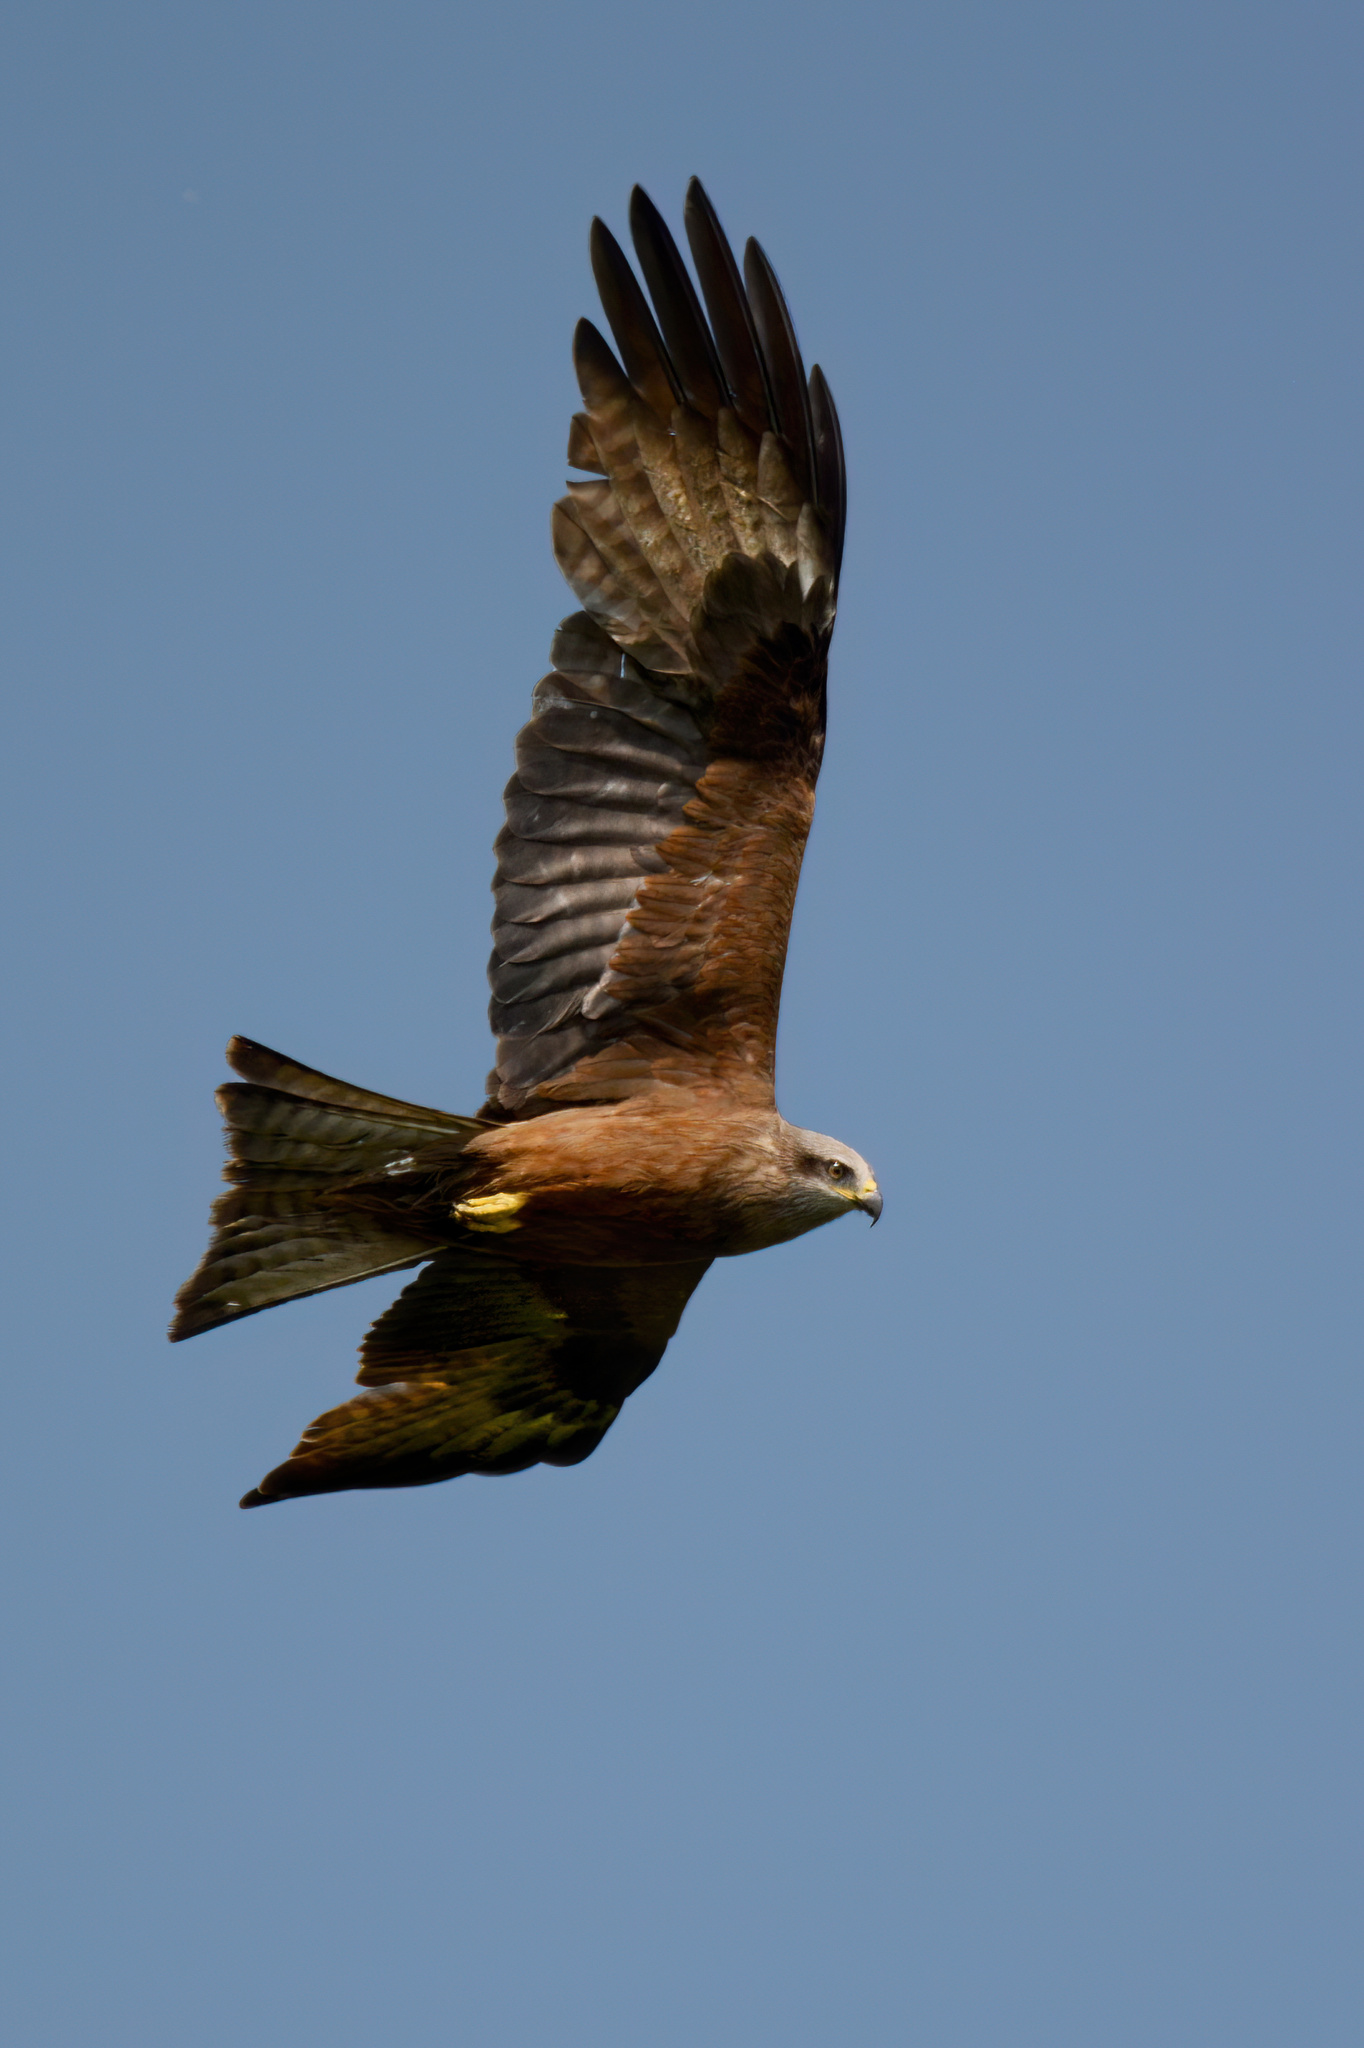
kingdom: Animalia
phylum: Chordata
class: Aves
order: Accipitriformes
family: Accipitridae
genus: Milvus
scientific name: Milvus migrans
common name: Black kite
